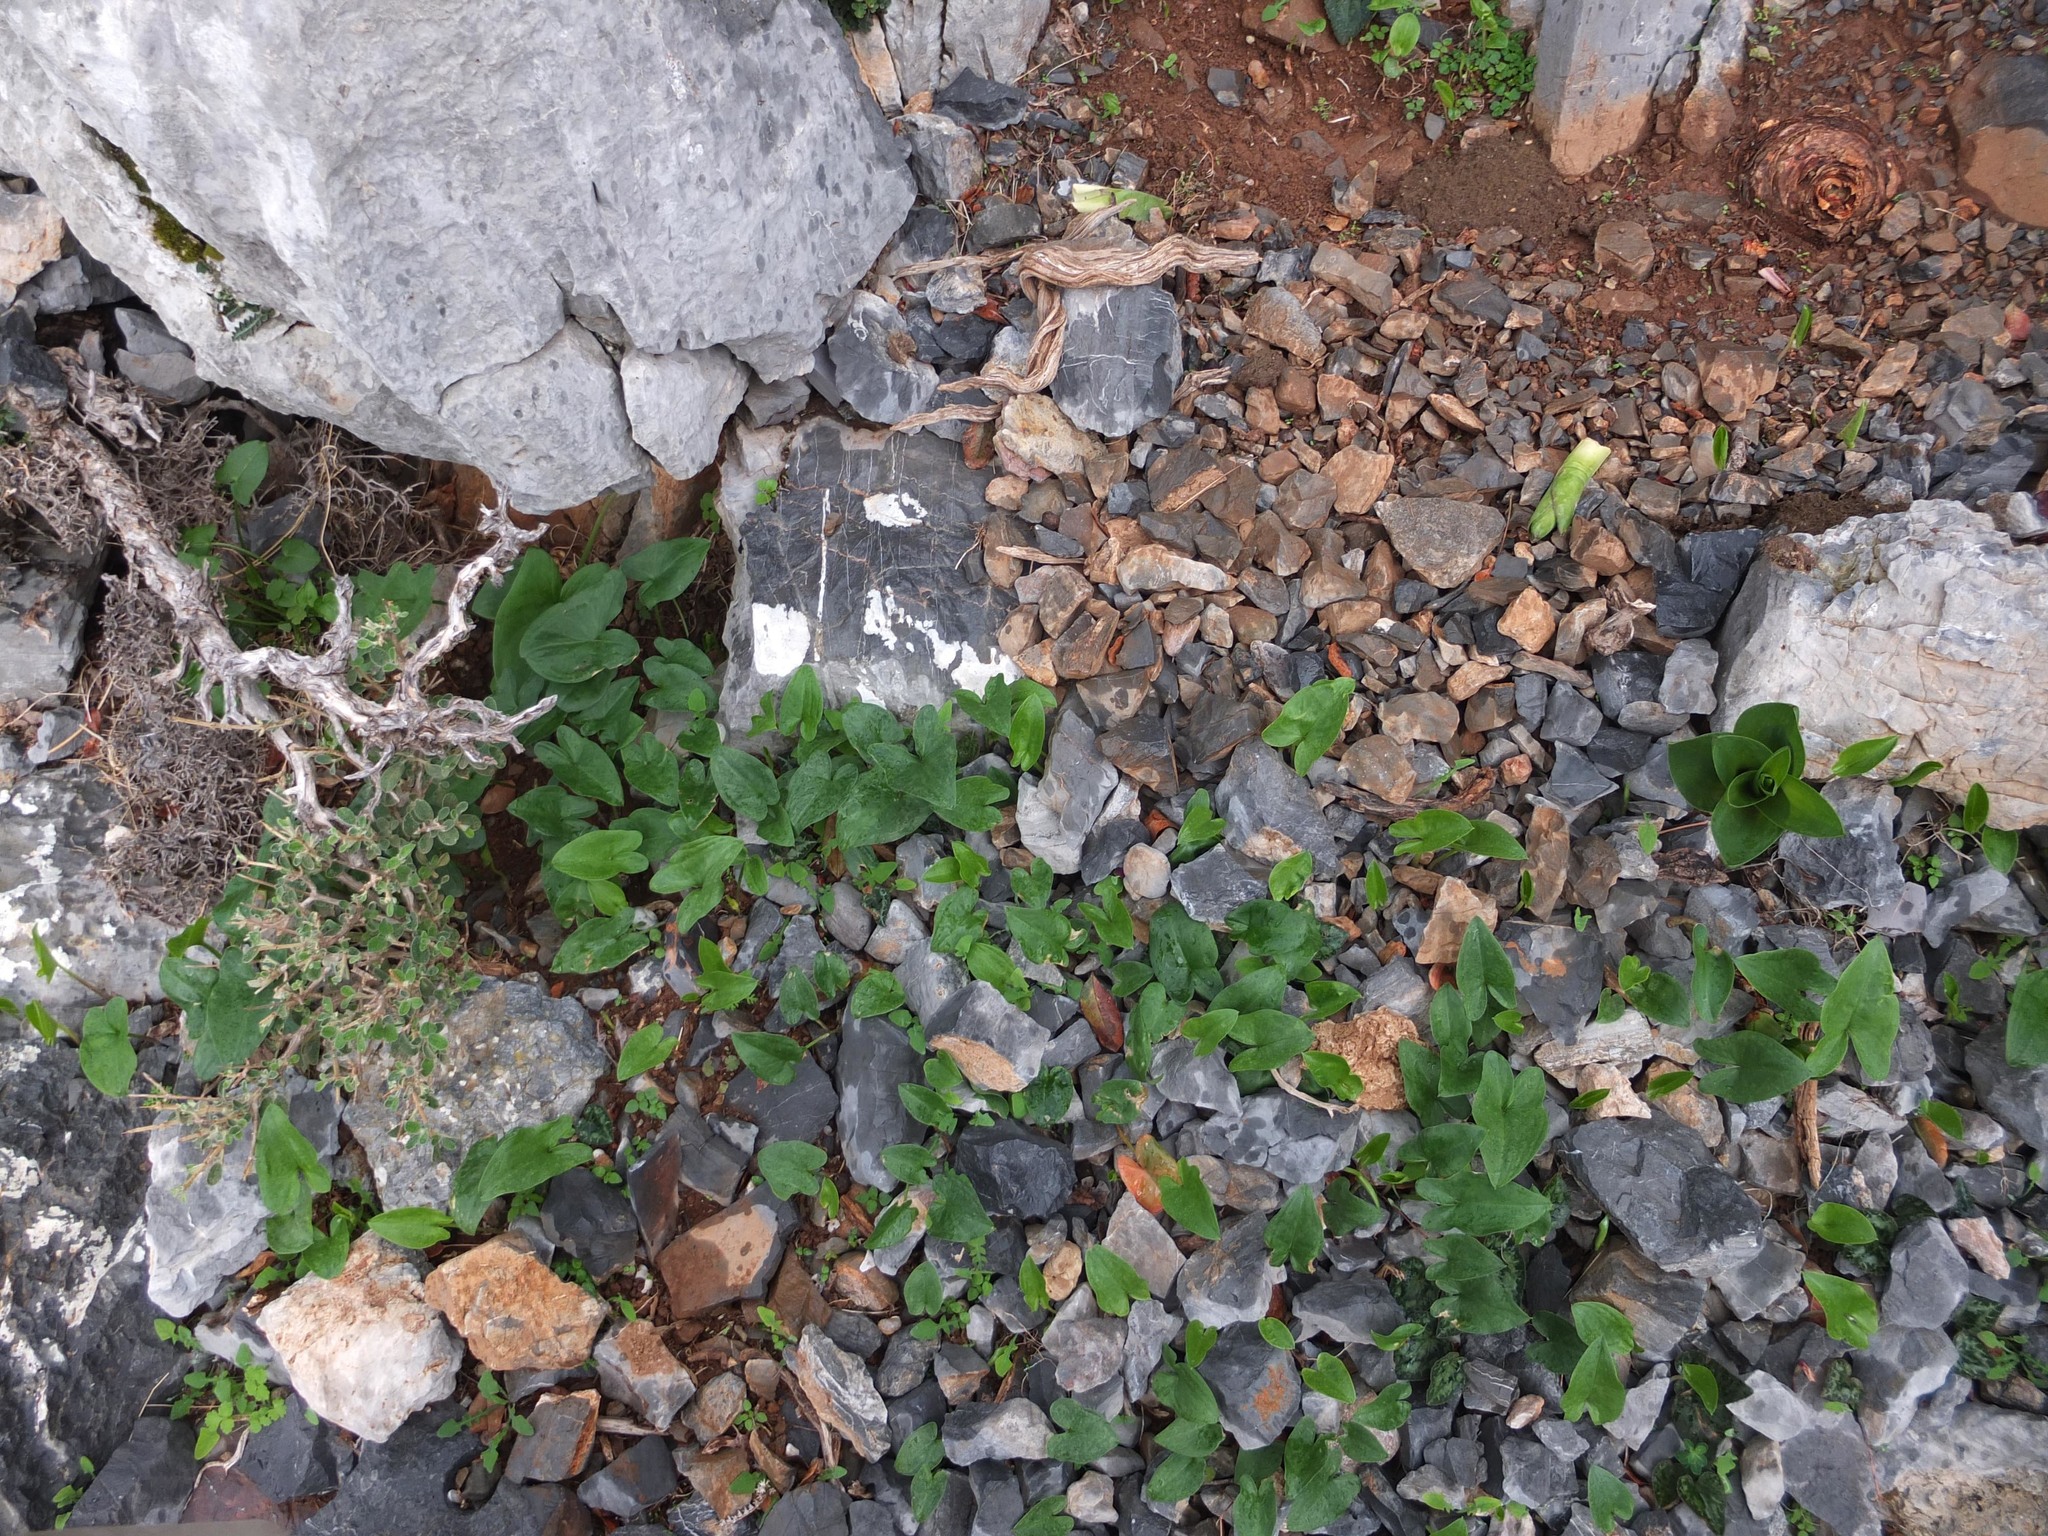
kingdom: Plantae
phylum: Tracheophyta
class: Liliopsida
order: Alismatales
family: Araceae
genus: Arisarum
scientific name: Arisarum vulgare
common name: Common arisarum
